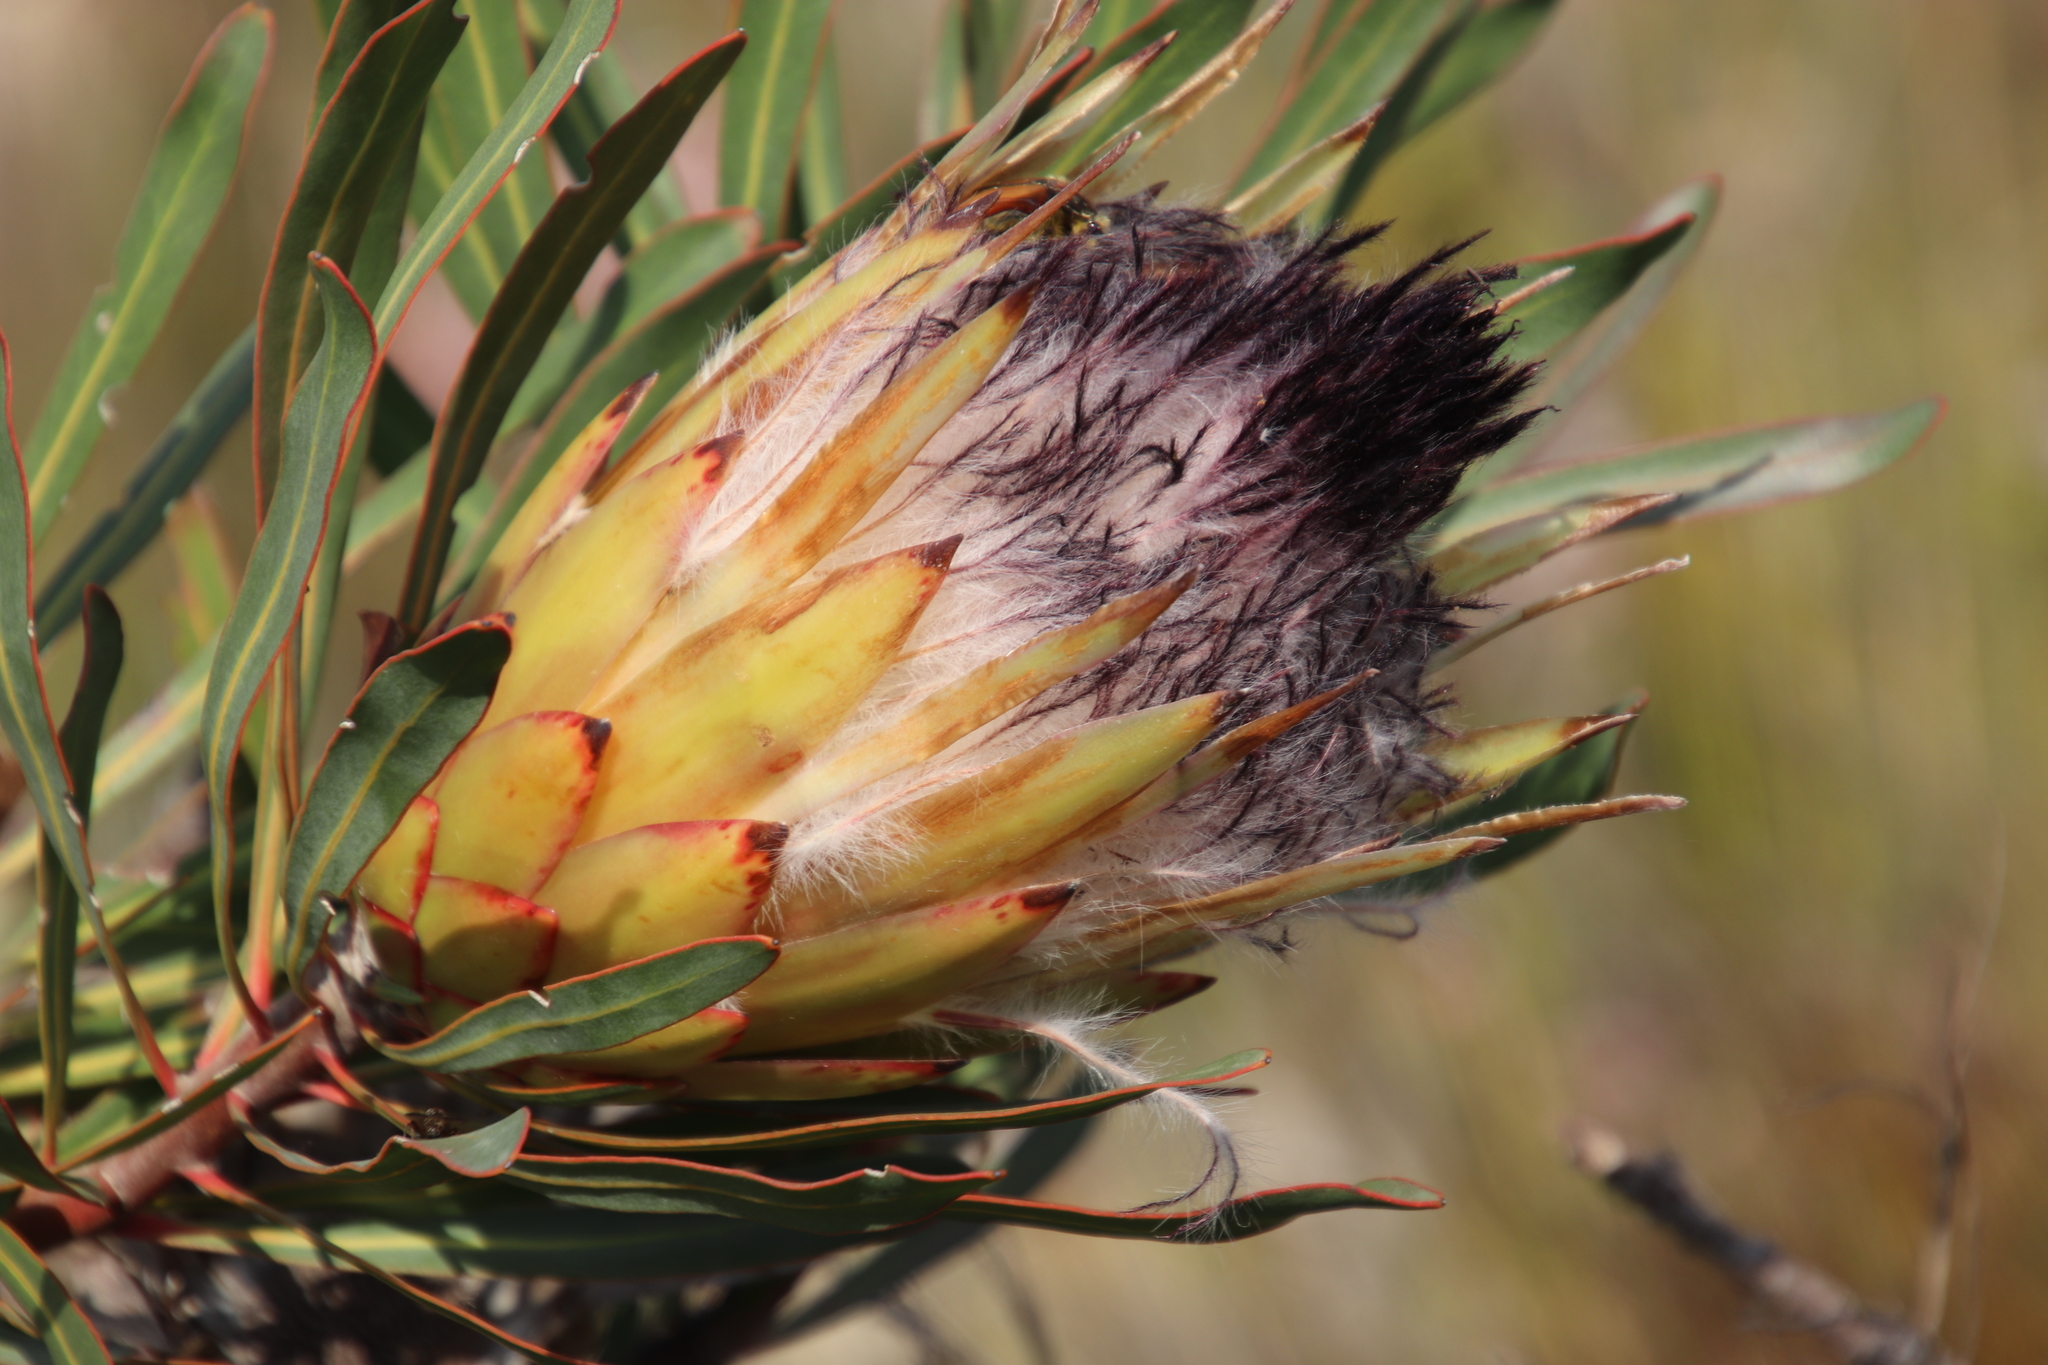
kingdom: Plantae
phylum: Tracheophyta
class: Magnoliopsida
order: Proteales
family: Proteaceae
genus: Protea
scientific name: Protea longifolia
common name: Long-leaf sugarbush
